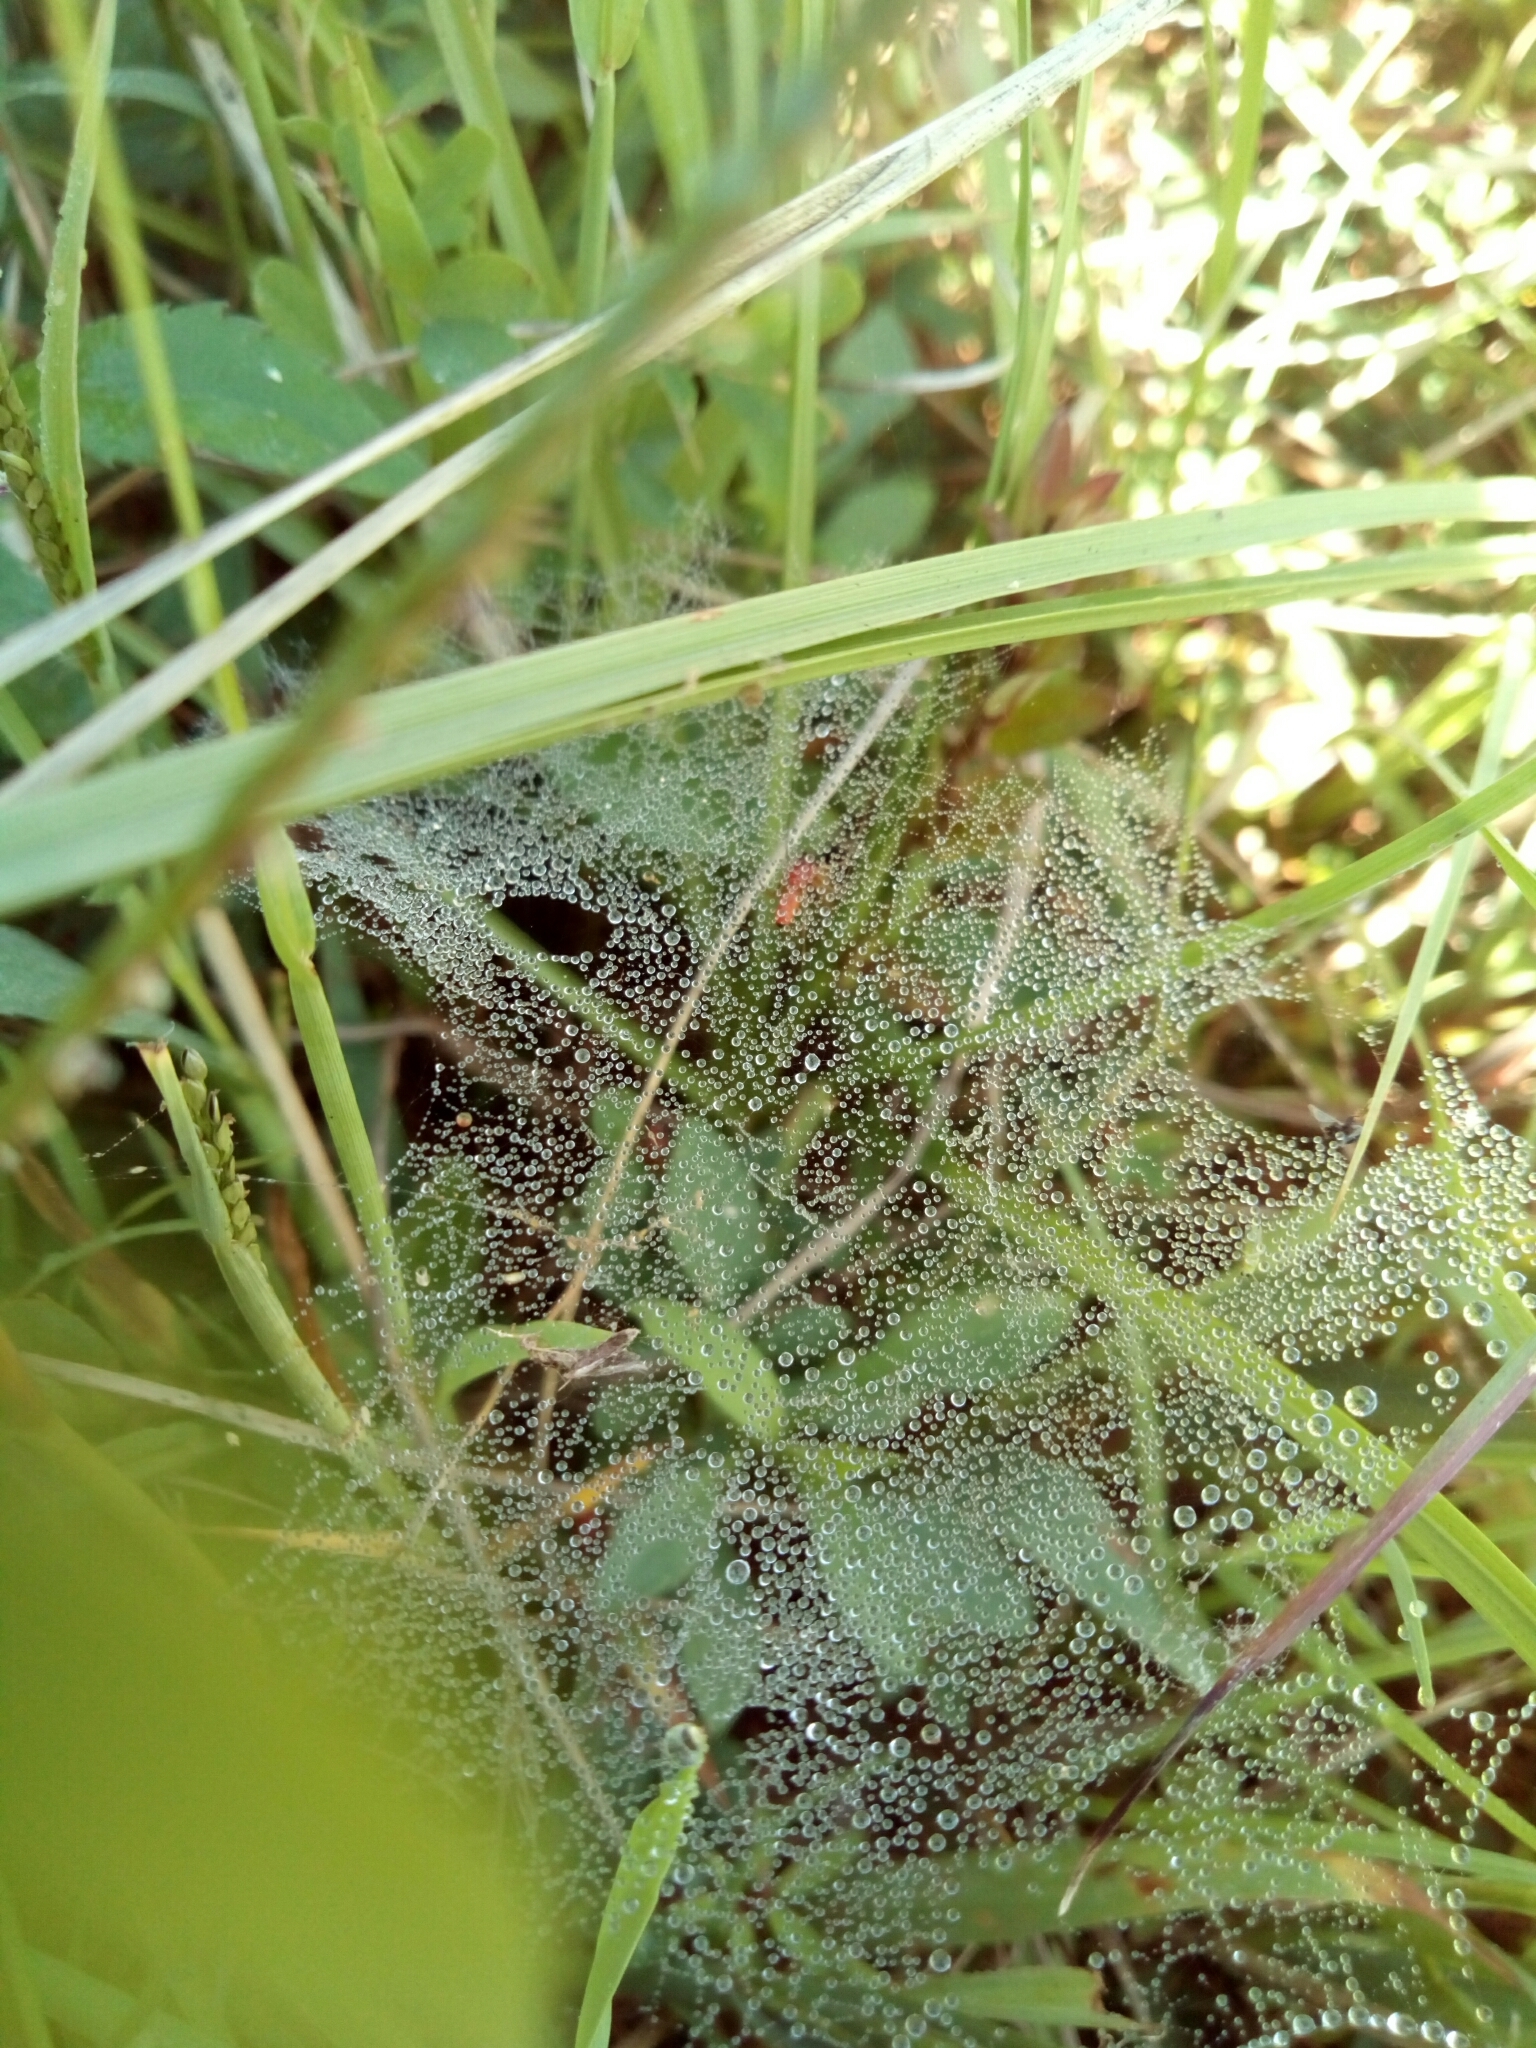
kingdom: Animalia
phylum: Arthropoda
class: Arachnida
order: Araneae
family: Linyphiidae
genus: Florinda
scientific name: Florinda coccinea
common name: Black-tailed red sheetweaver
